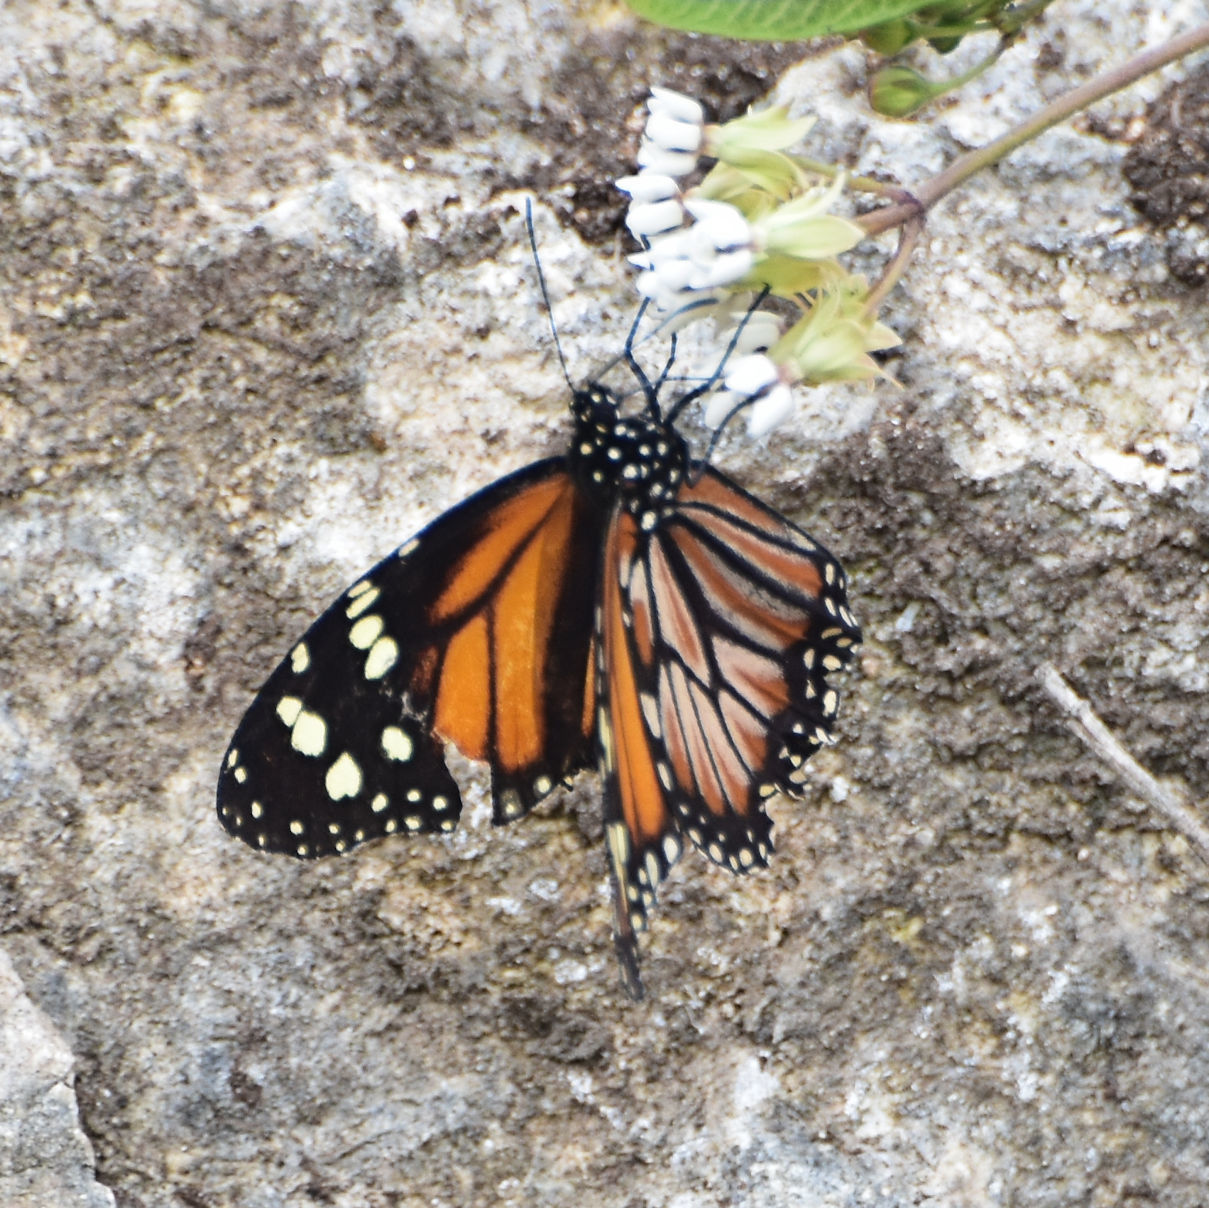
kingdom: Animalia
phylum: Arthropoda
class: Insecta
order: Lepidoptera
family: Nymphalidae
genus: Danaus
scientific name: Danaus cleophile
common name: Jamaican monarch
